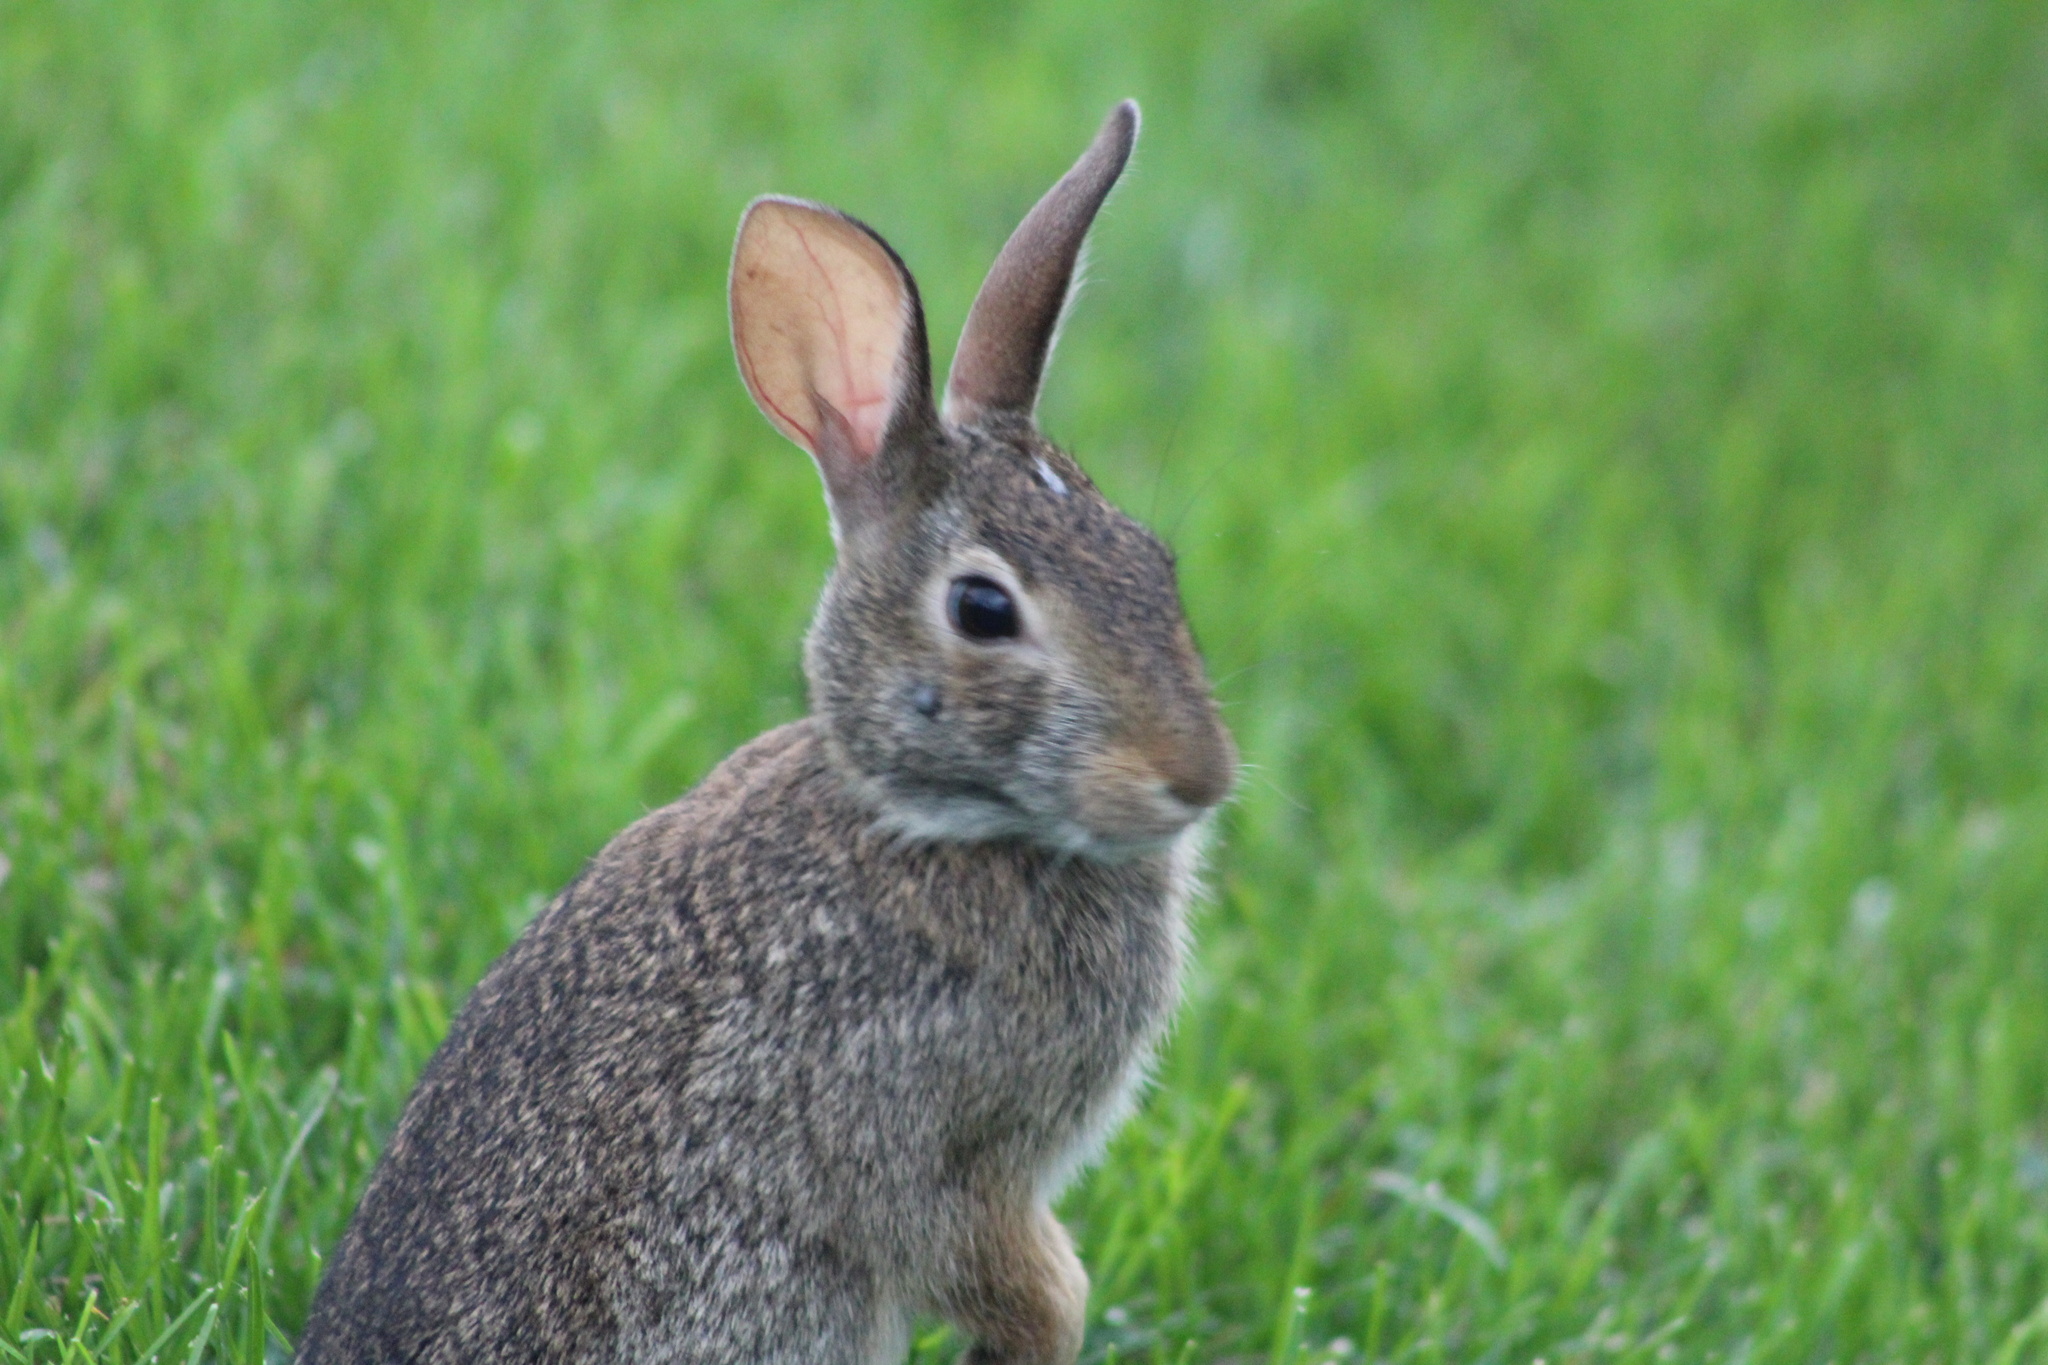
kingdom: Animalia
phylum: Chordata
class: Mammalia
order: Lagomorpha
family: Leporidae
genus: Sylvilagus
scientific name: Sylvilagus floridanus
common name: Eastern cottontail
